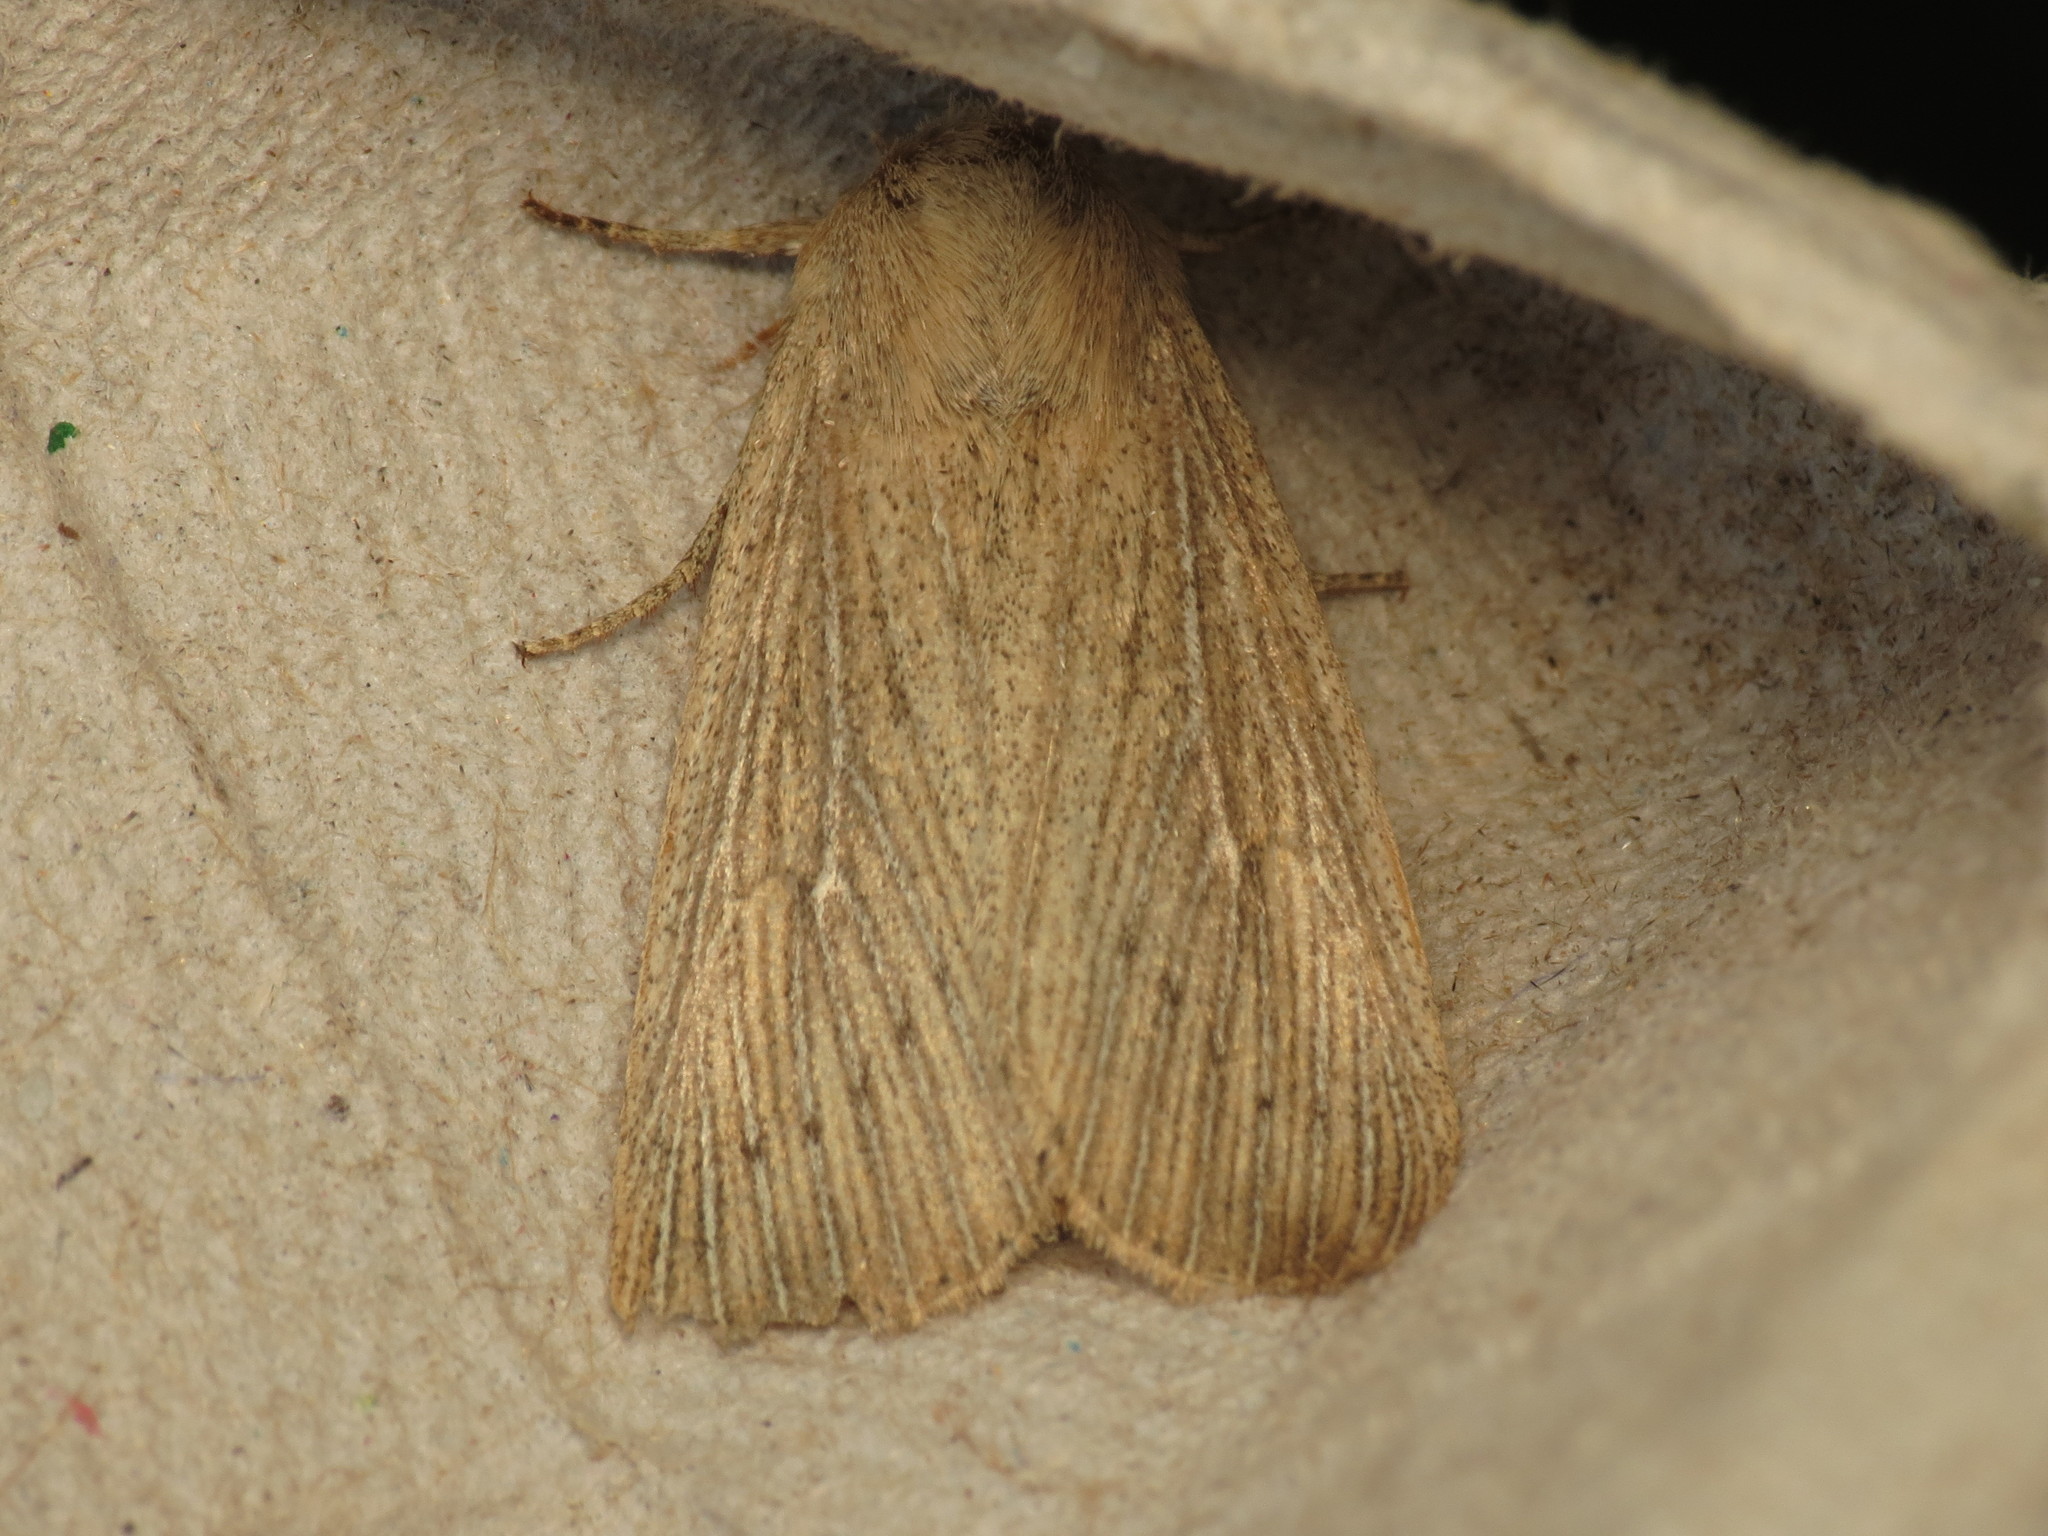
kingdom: Animalia
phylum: Arthropoda
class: Insecta
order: Lepidoptera
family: Noctuidae
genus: Leucania
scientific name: Leucania obsoleta
